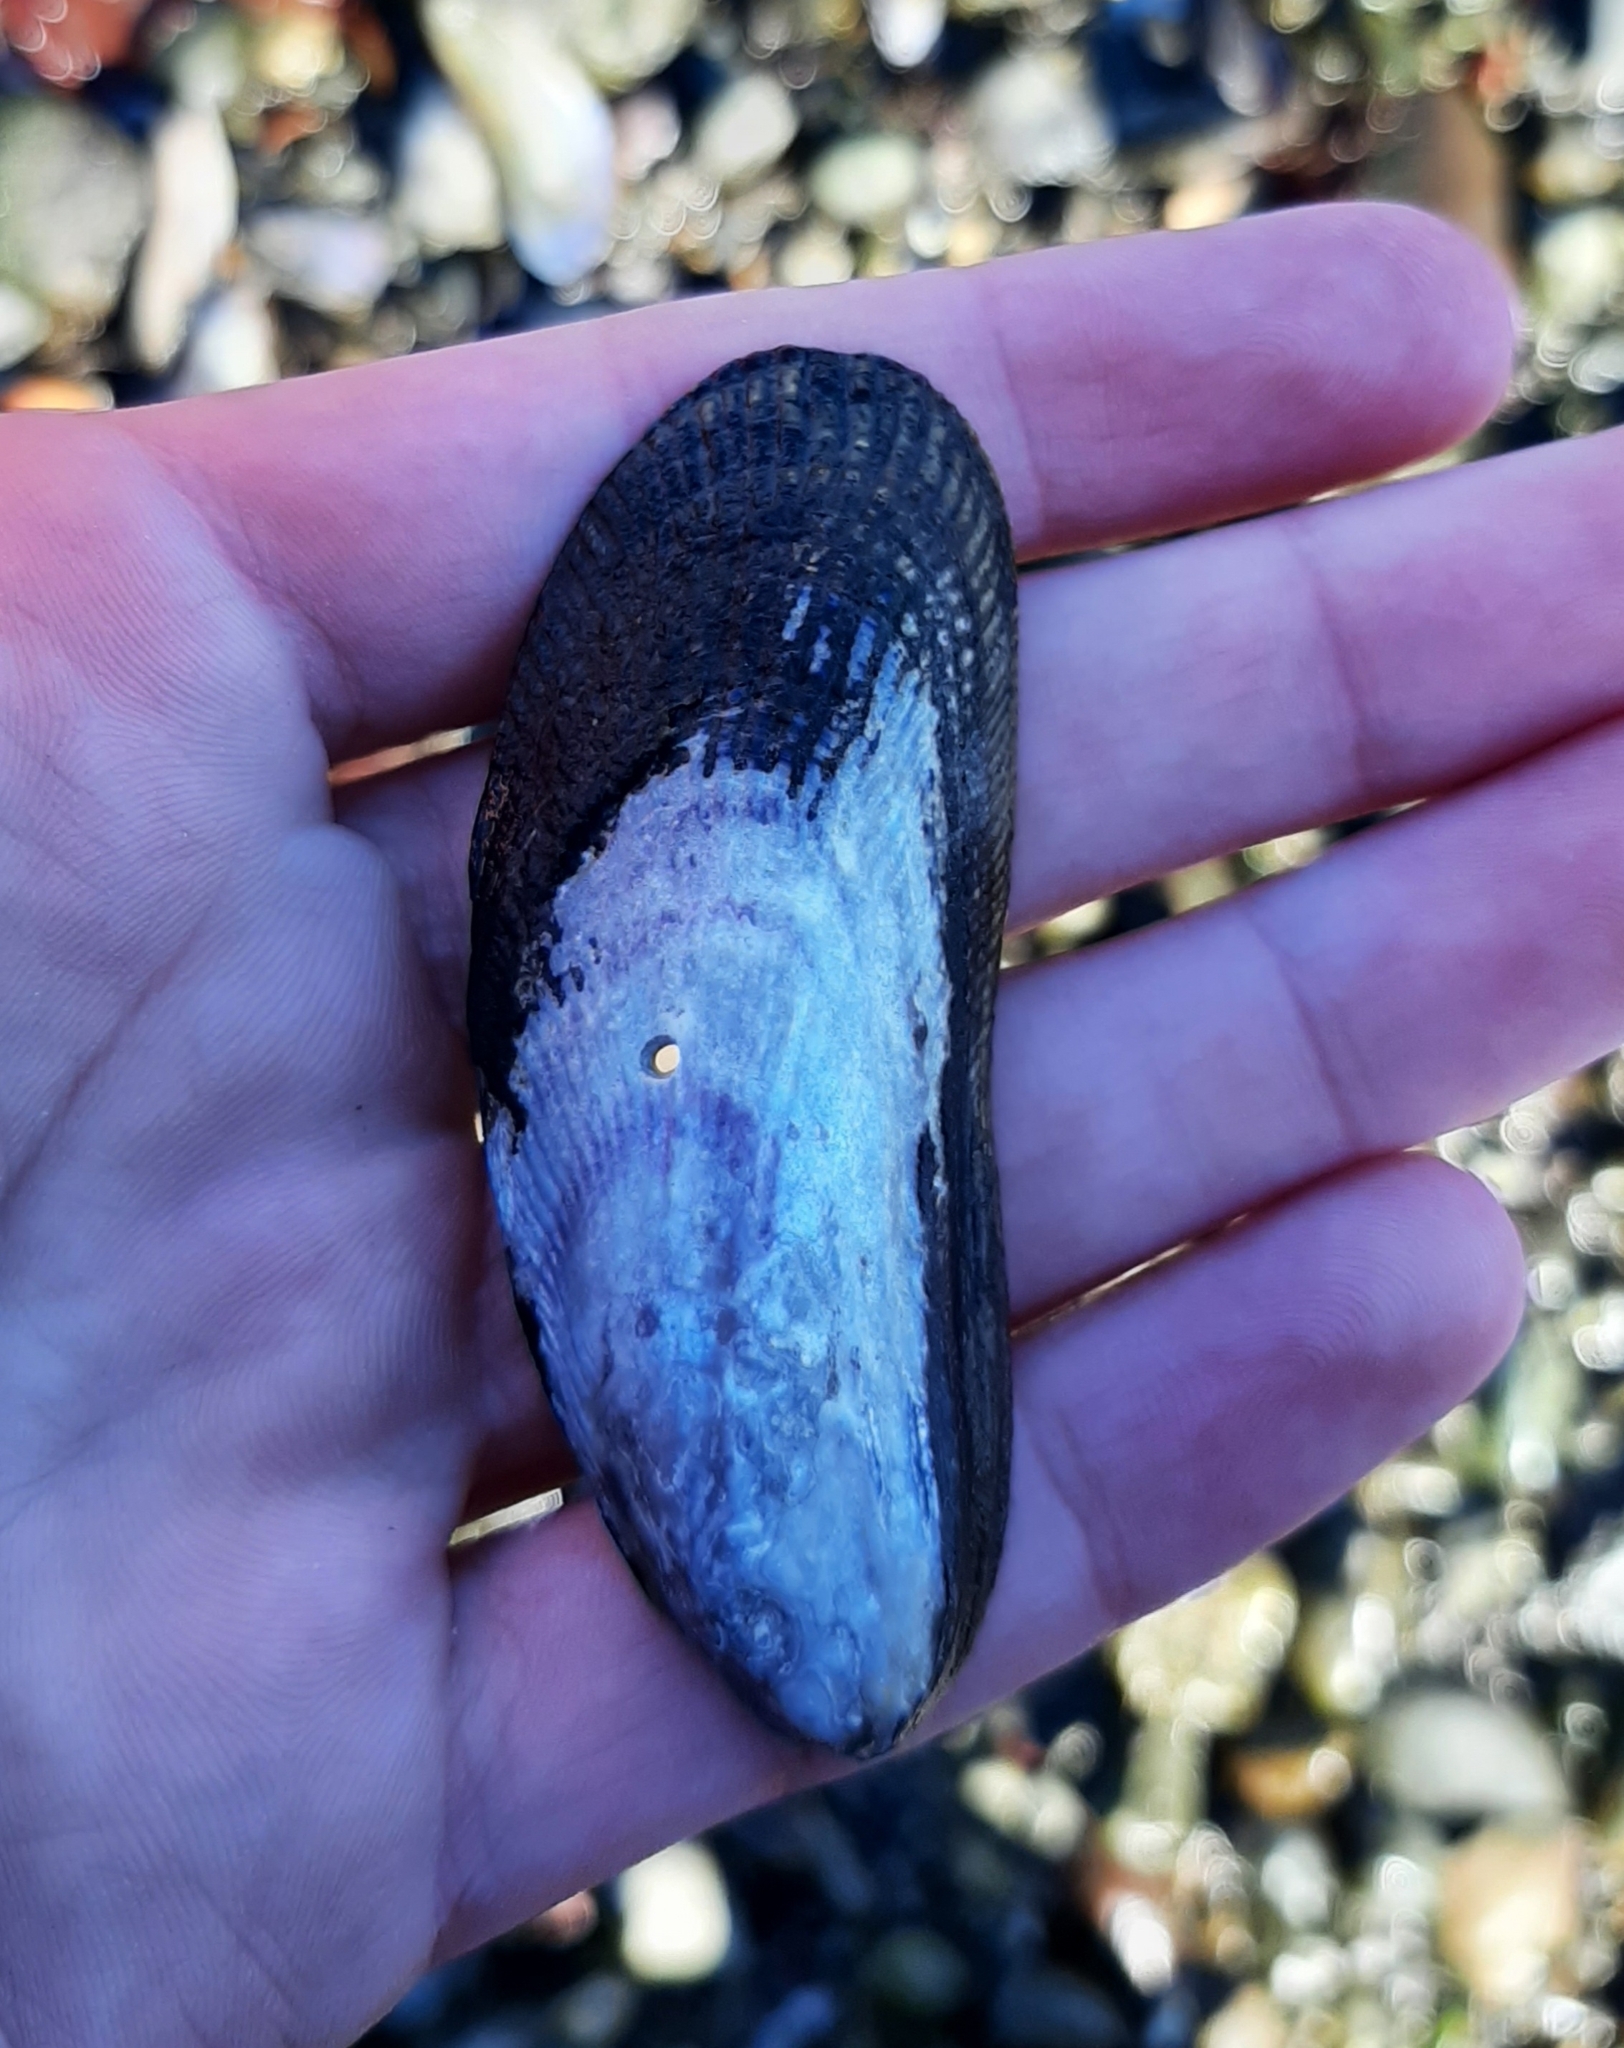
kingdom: Animalia
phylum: Mollusca
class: Bivalvia
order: Mytilida
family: Mytilidae
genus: Geukensia
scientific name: Geukensia demissa
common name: Ribbed mussel
